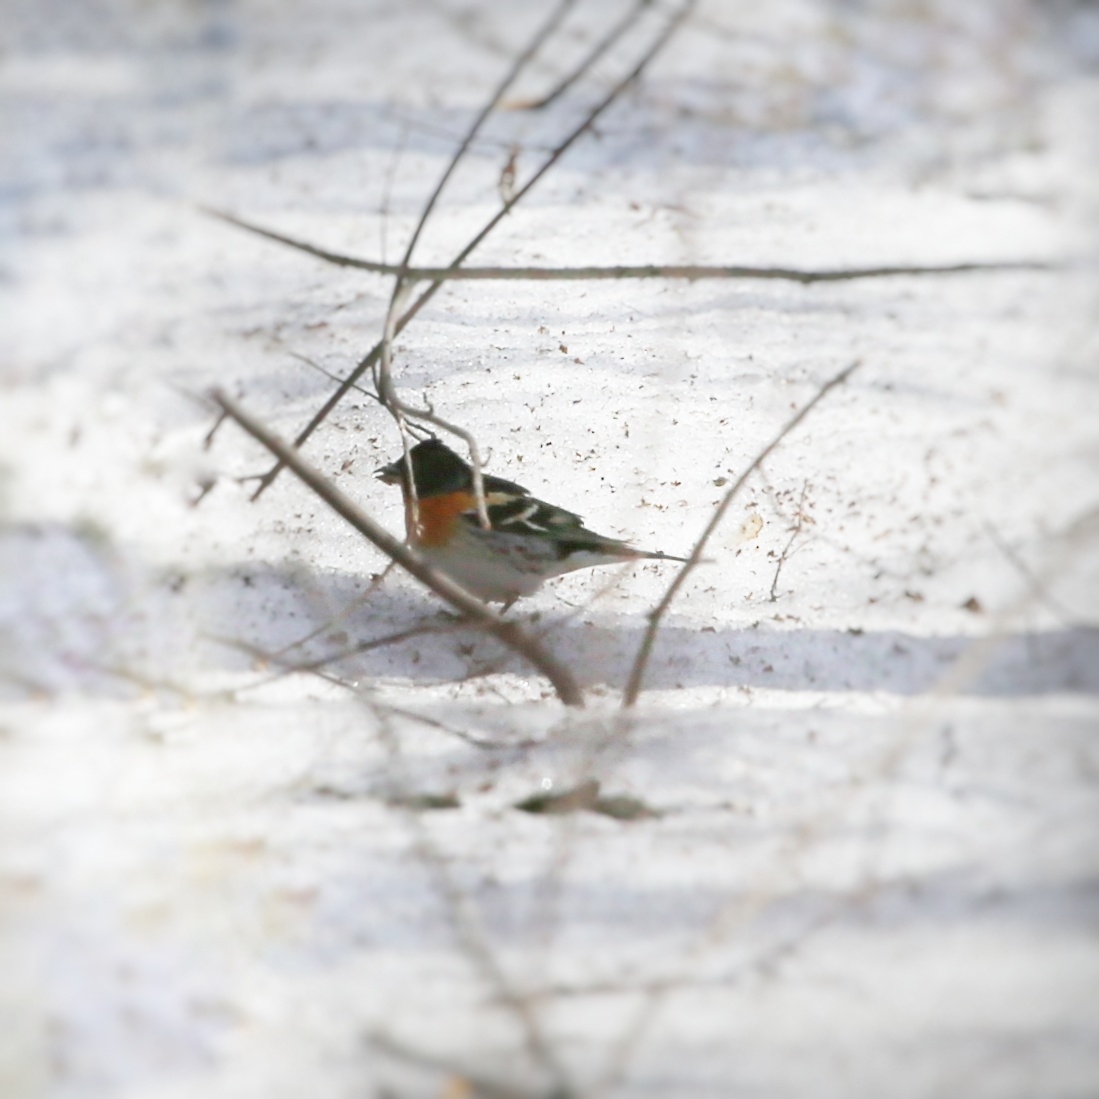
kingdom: Animalia
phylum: Chordata
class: Aves
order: Passeriformes
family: Fringillidae
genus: Fringilla
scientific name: Fringilla montifringilla
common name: Brambling
